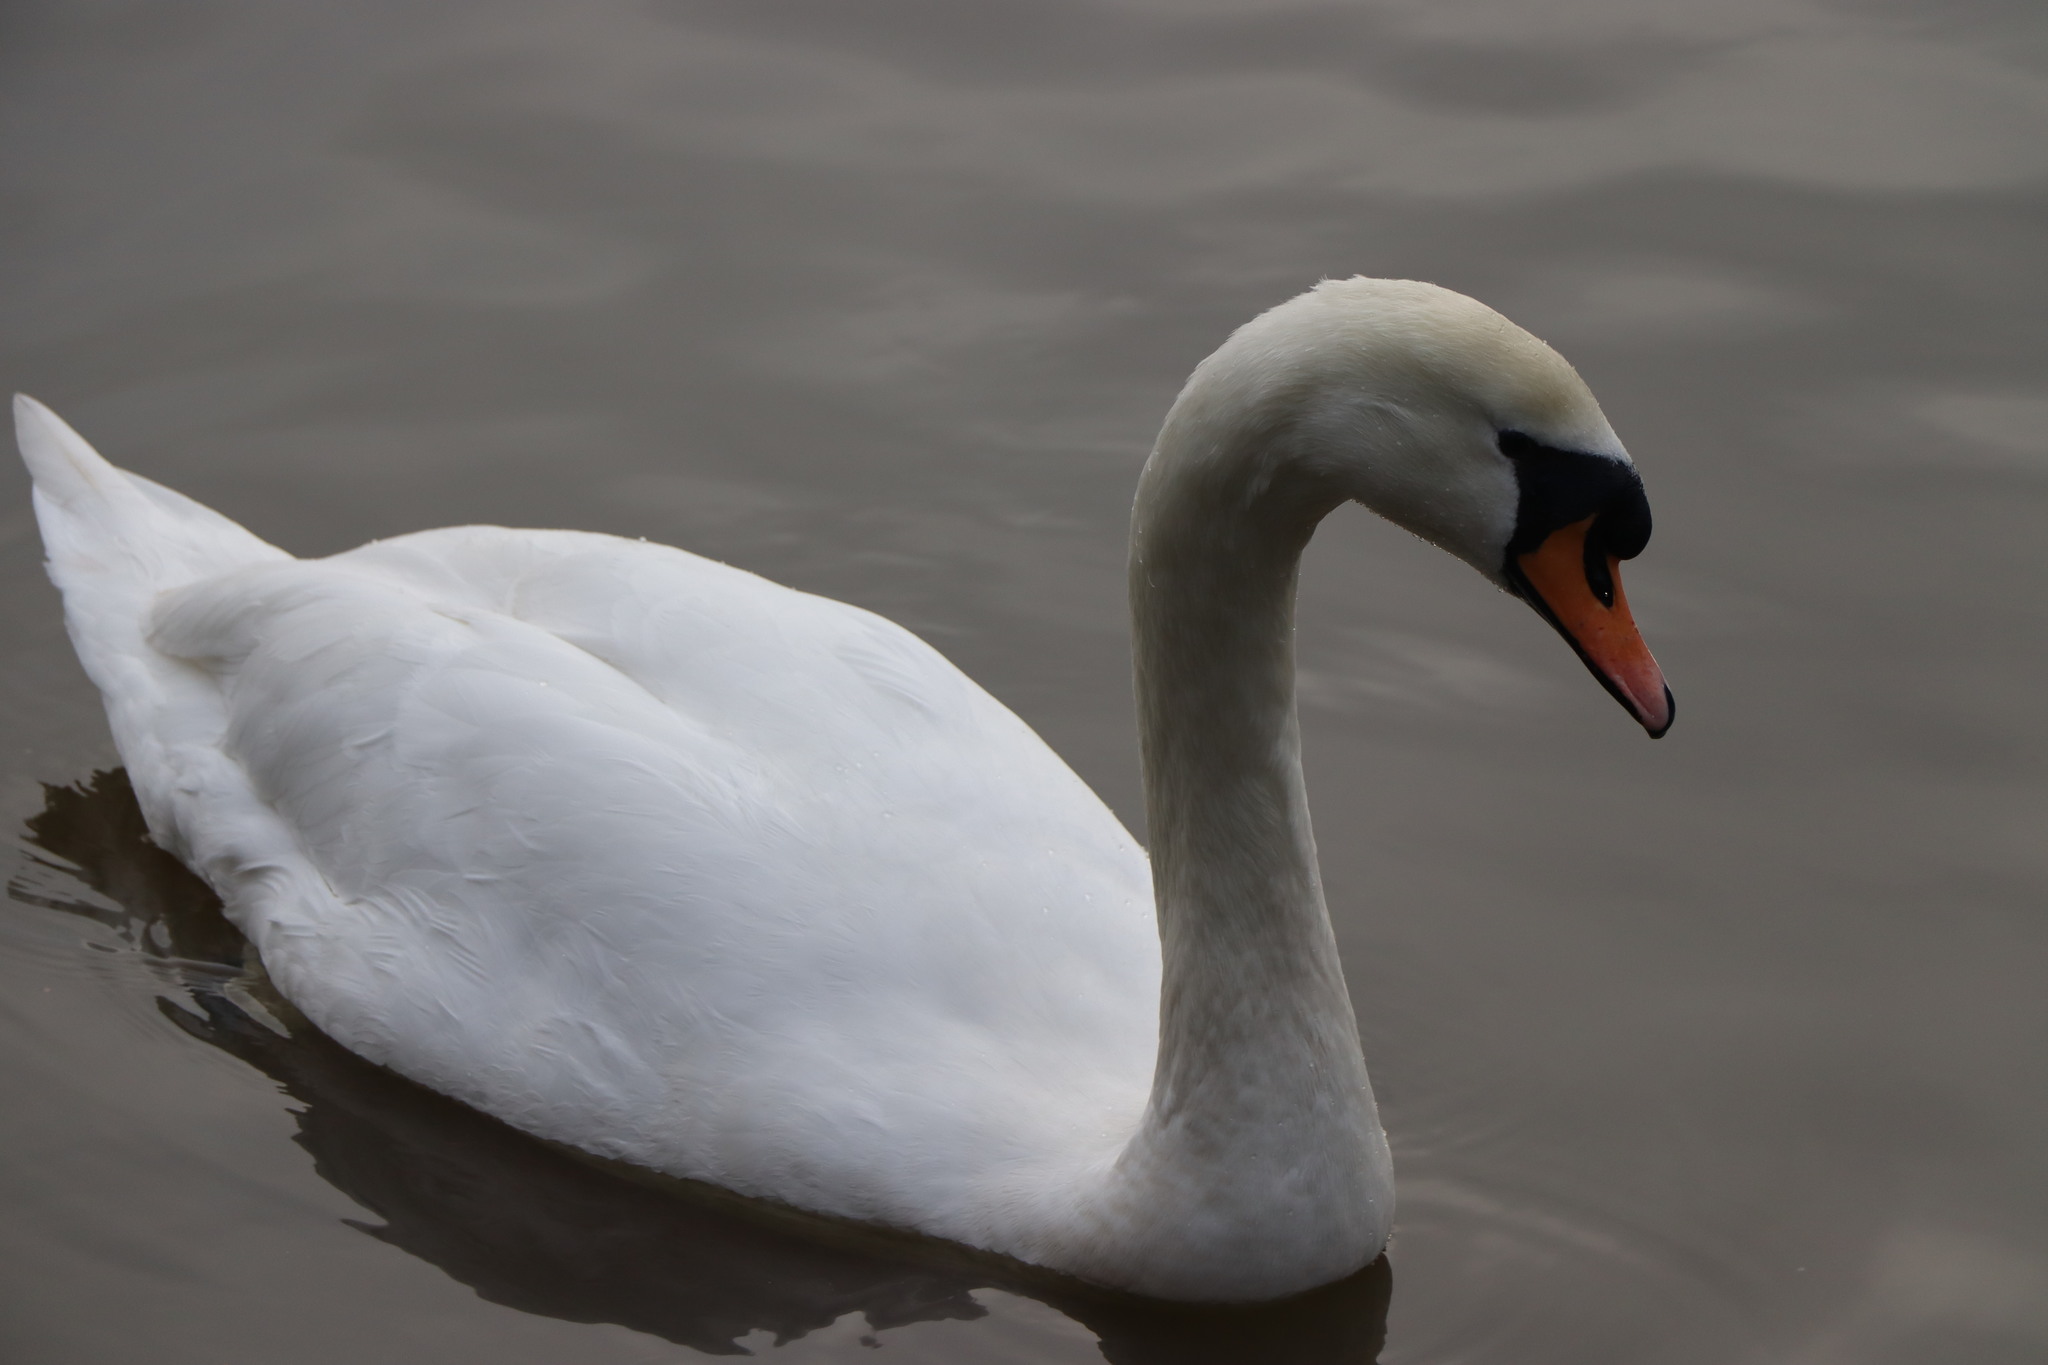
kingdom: Animalia
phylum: Chordata
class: Aves
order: Anseriformes
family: Anatidae
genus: Cygnus
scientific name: Cygnus olor
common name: Mute swan
